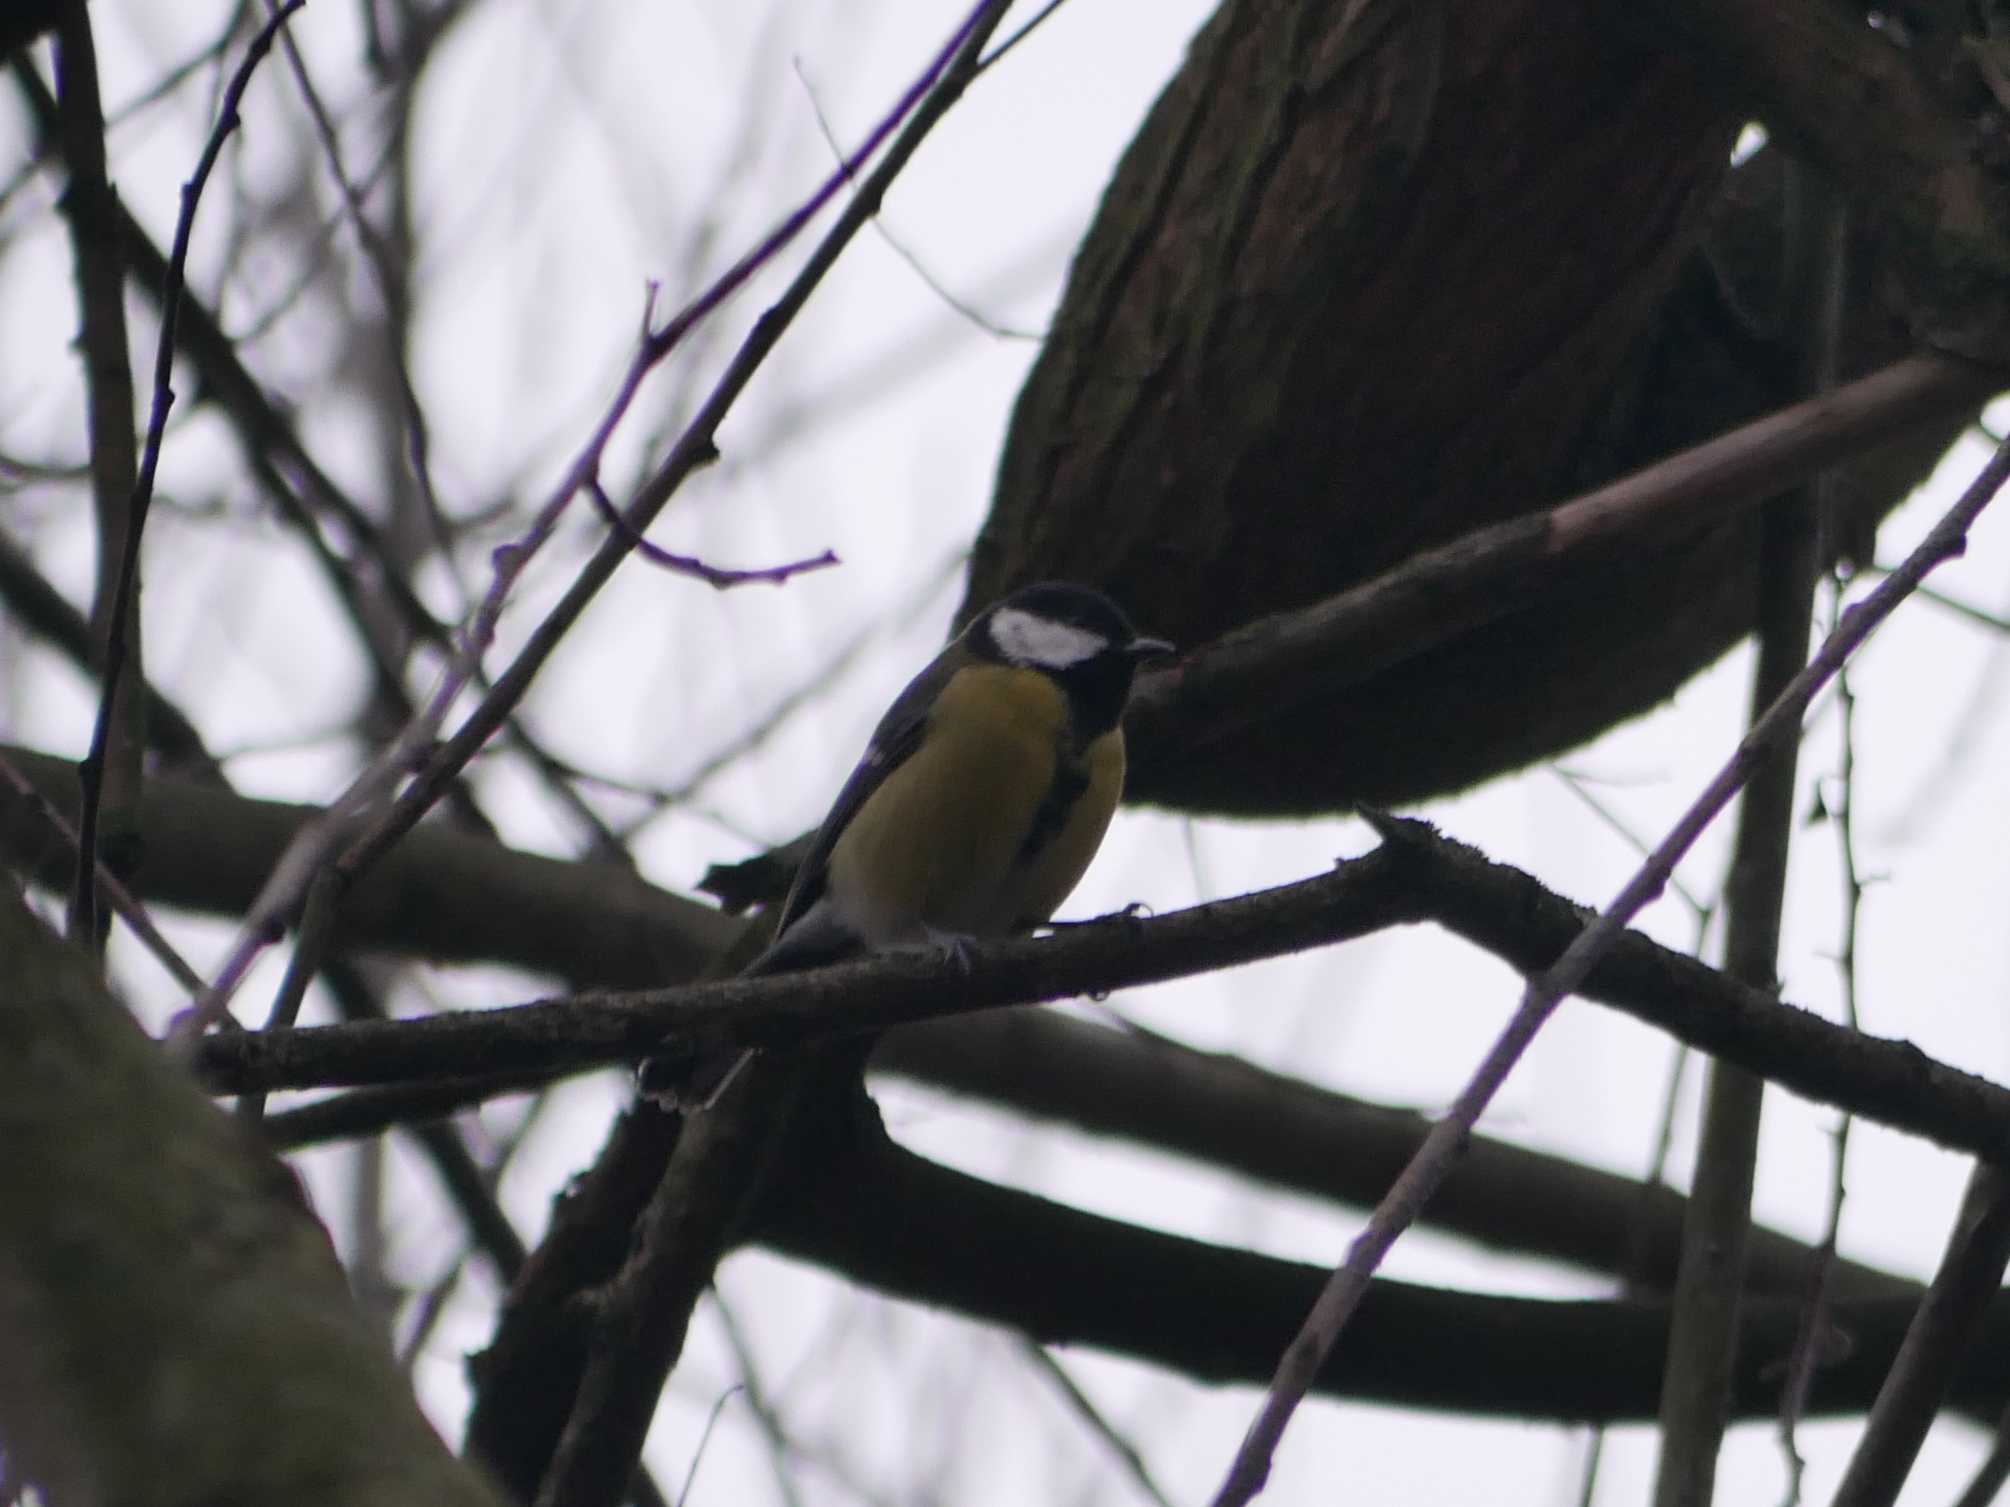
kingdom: Animalia
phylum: Chordata
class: Aves
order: Passeriformes
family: Paridae
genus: Parus
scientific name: Parus major
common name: Great tit
